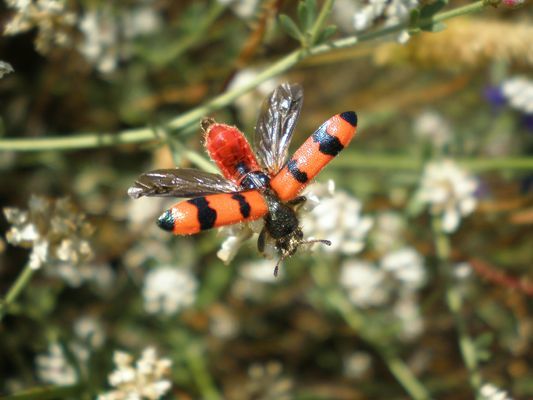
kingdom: Animalia
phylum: Arthropoda
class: Insecta
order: Coleoptera
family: Cleridae
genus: Trichodes
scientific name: Trichodes apiarius
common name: Bee-eating beetle
